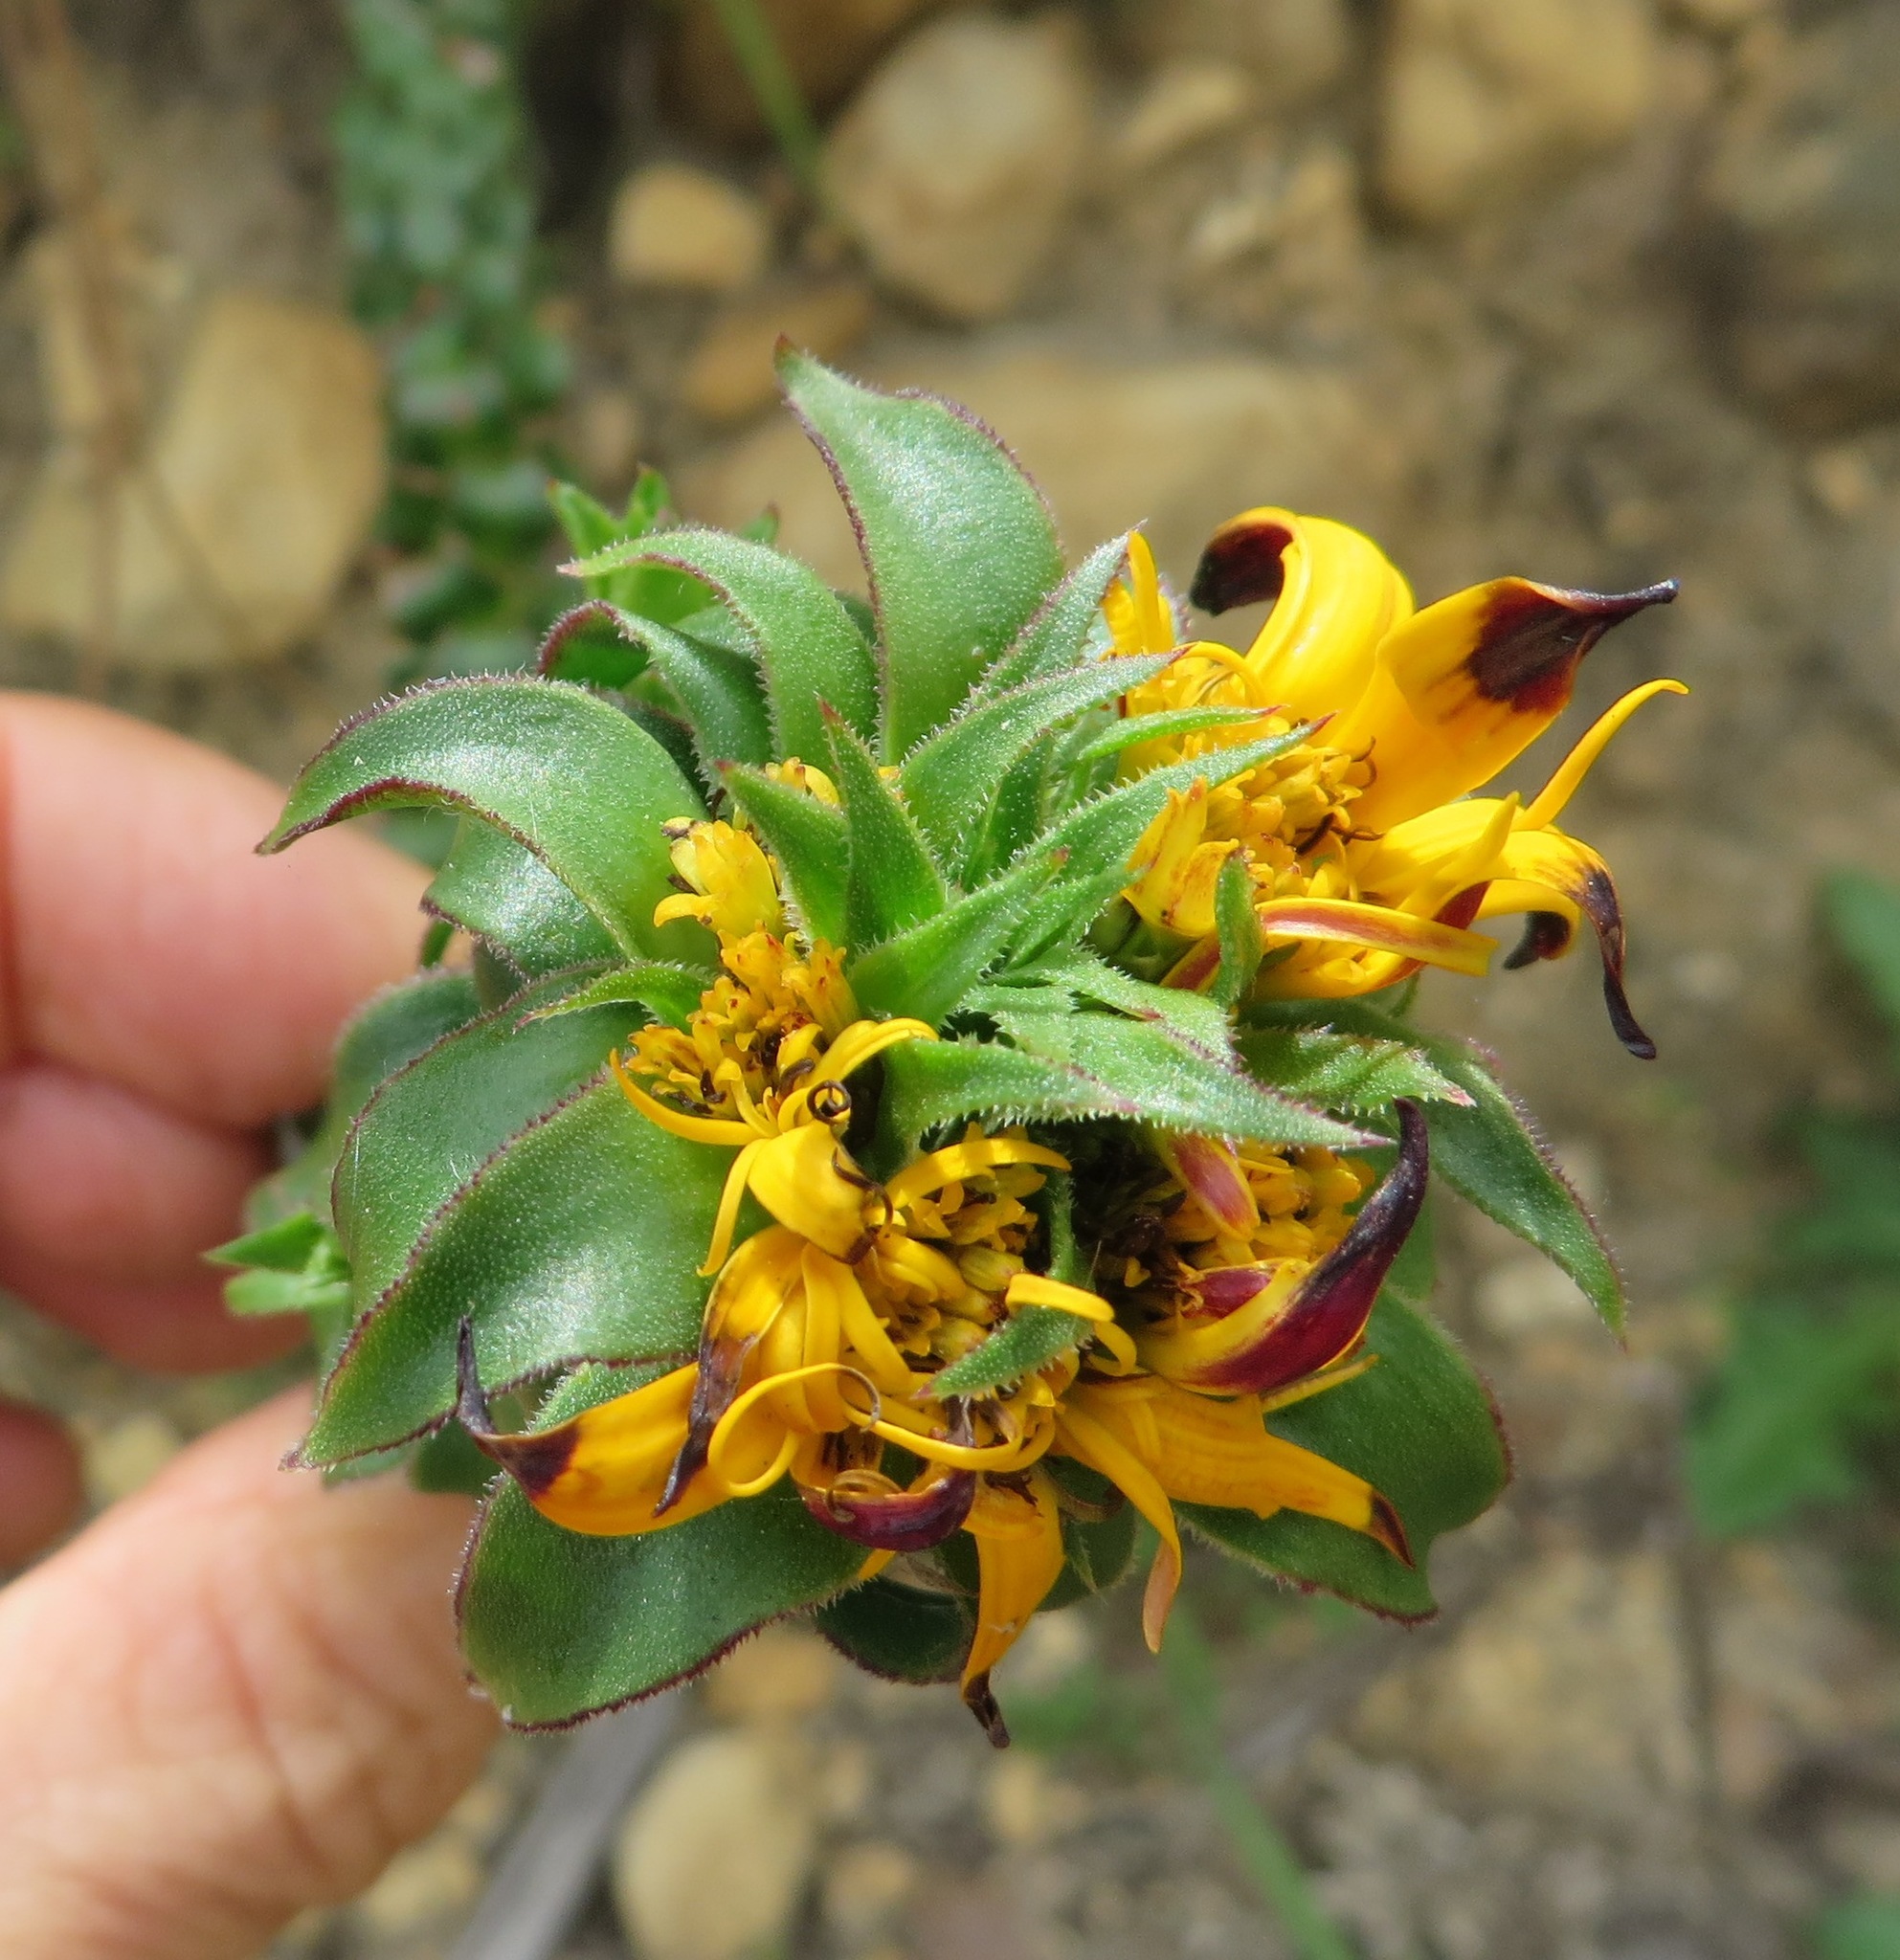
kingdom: Plantae
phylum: Tracheophyta
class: Magnoliopsida
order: Asterales
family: Asteraceae
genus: Oedera
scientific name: Oedera imbricata
